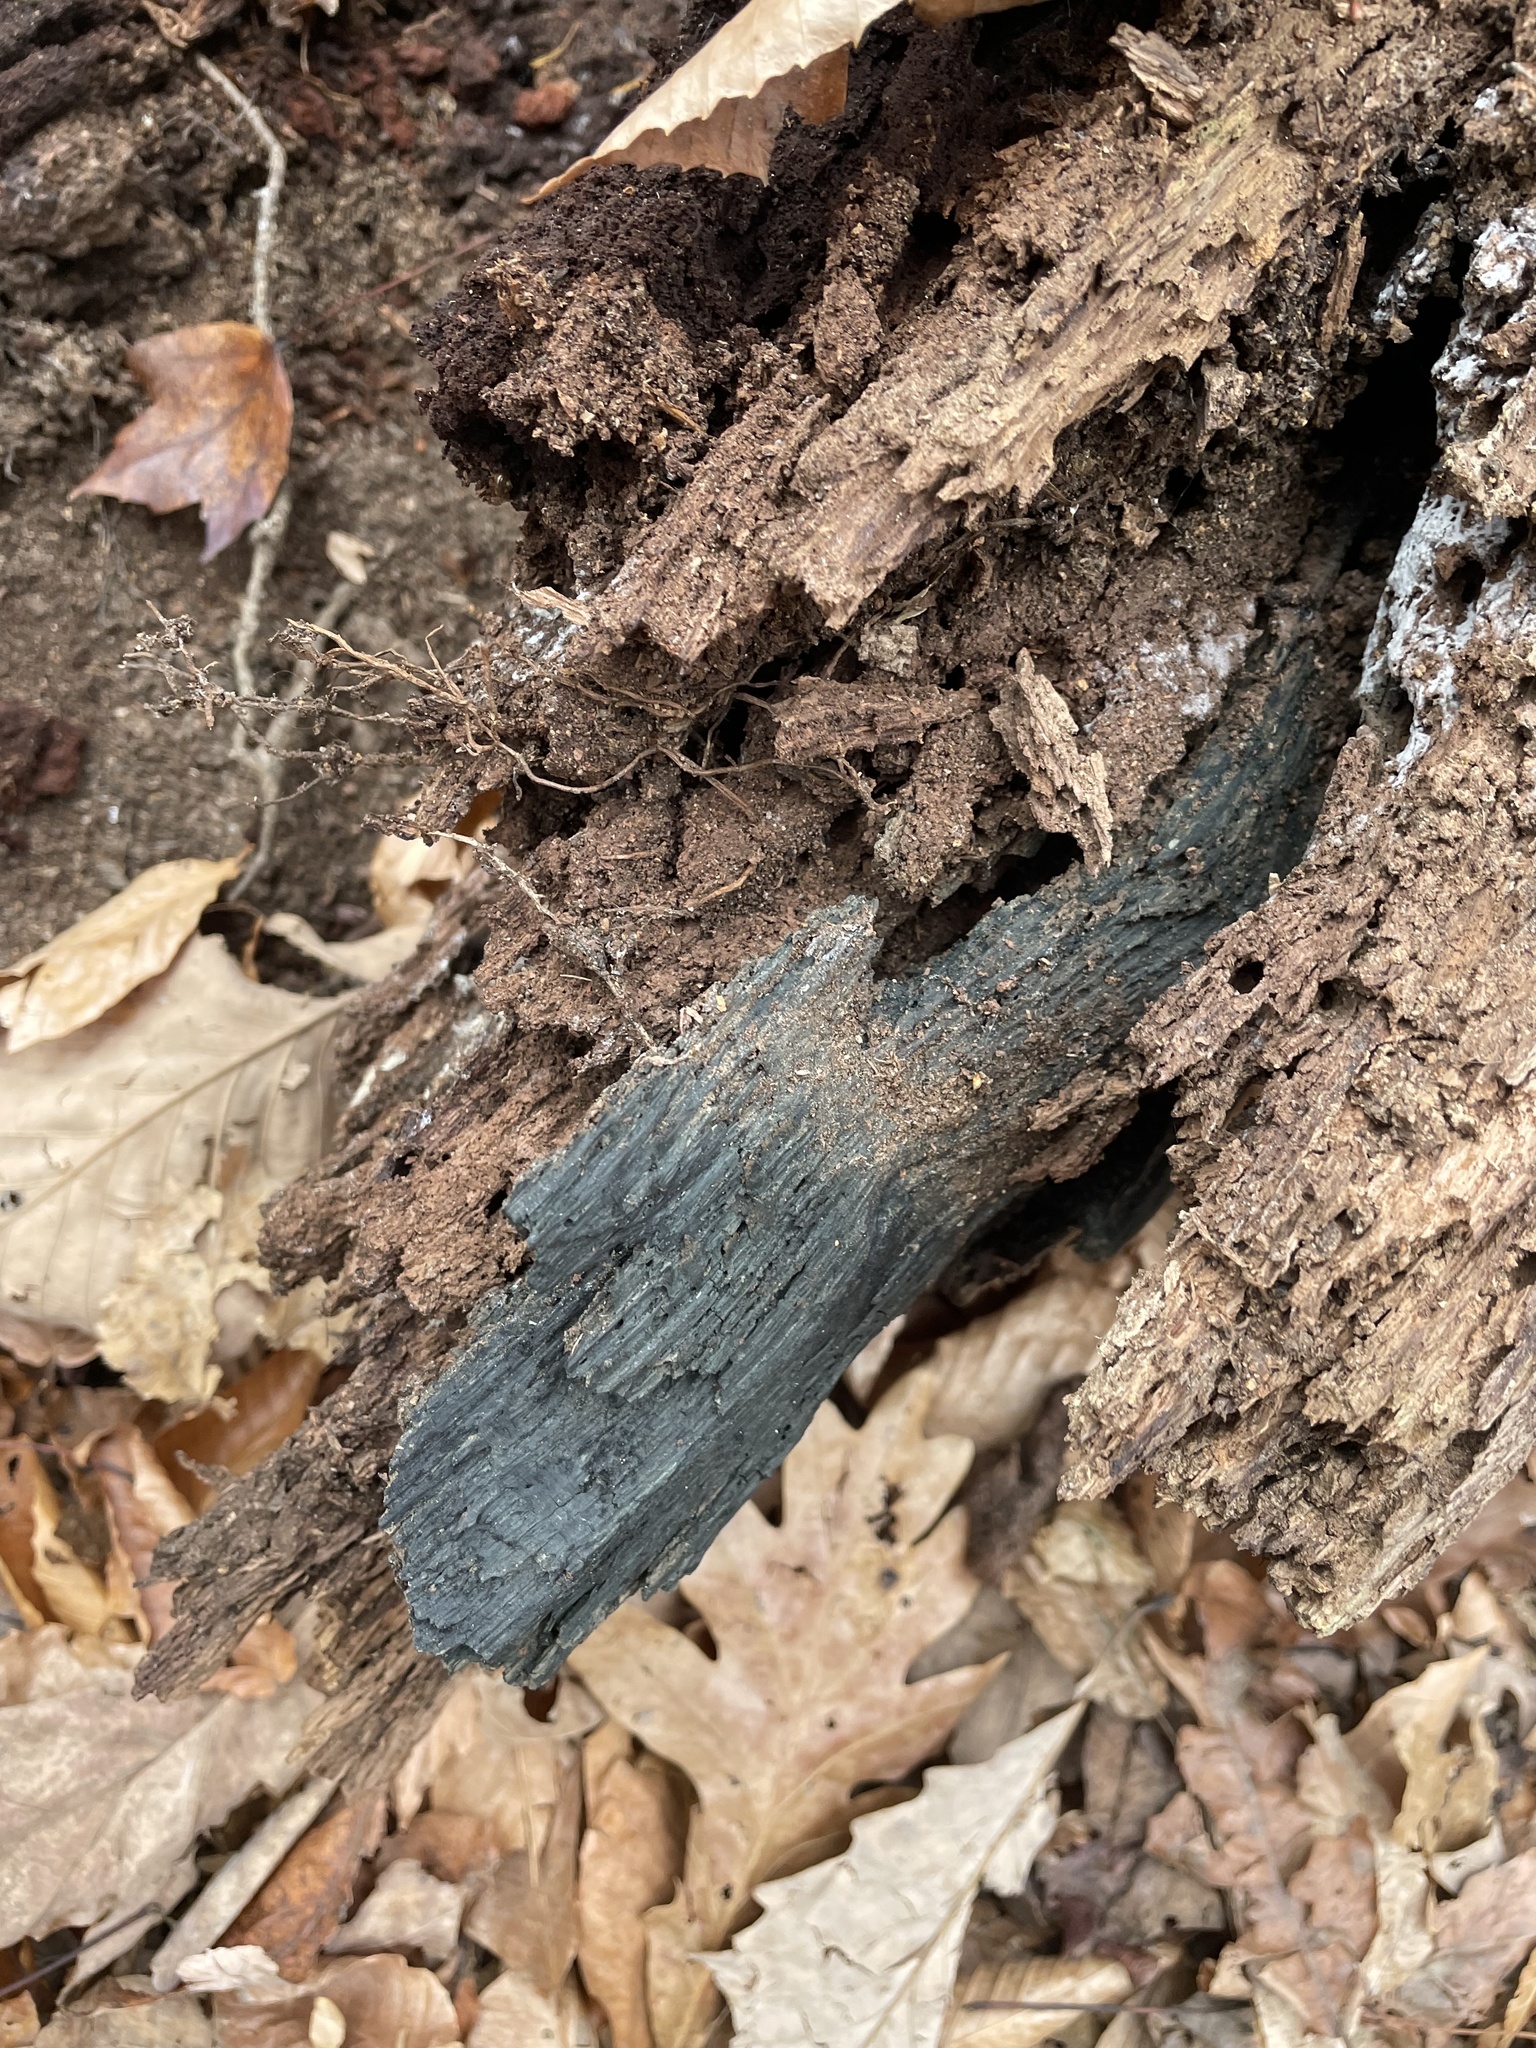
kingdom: Fungi
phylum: Ascomycota
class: Leotiomycetes
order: Helotiales
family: Chlorociboriaceae
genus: Chlorociboria
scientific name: Chlorociboria aeruginascens
